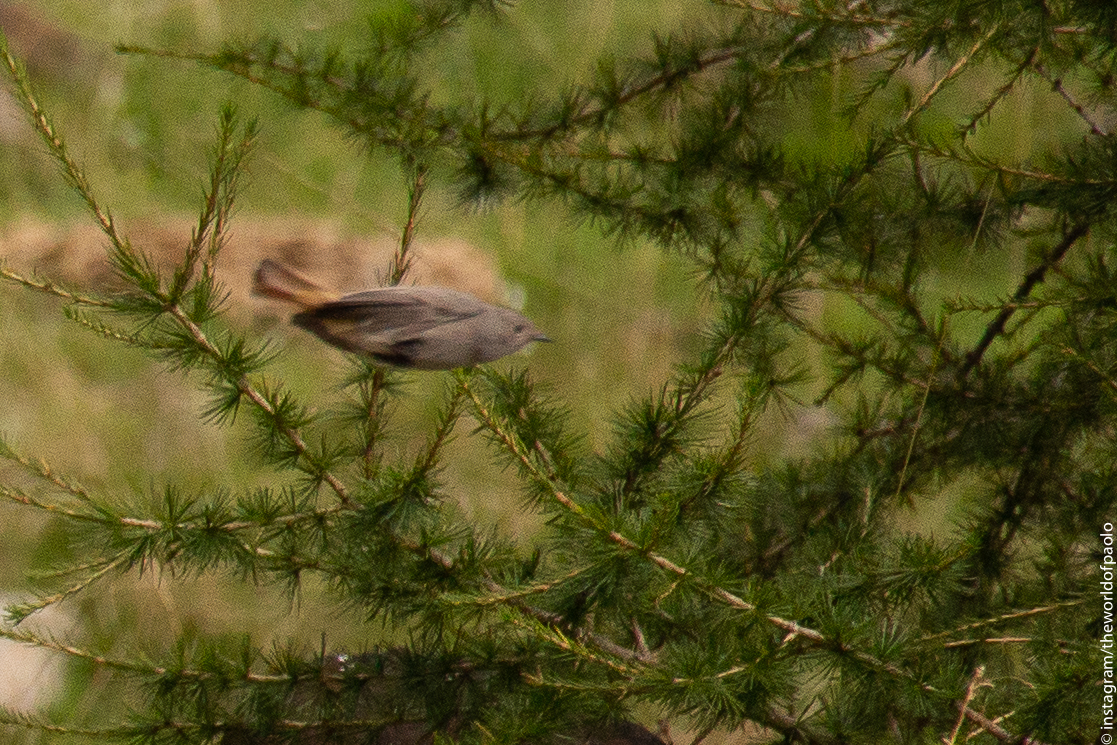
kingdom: Animalia
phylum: Chordata
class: Aves
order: Passeriformes
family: Muscicapidae
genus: Phoenicurus
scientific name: Phoenicurus ochruros
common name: Black redstart
